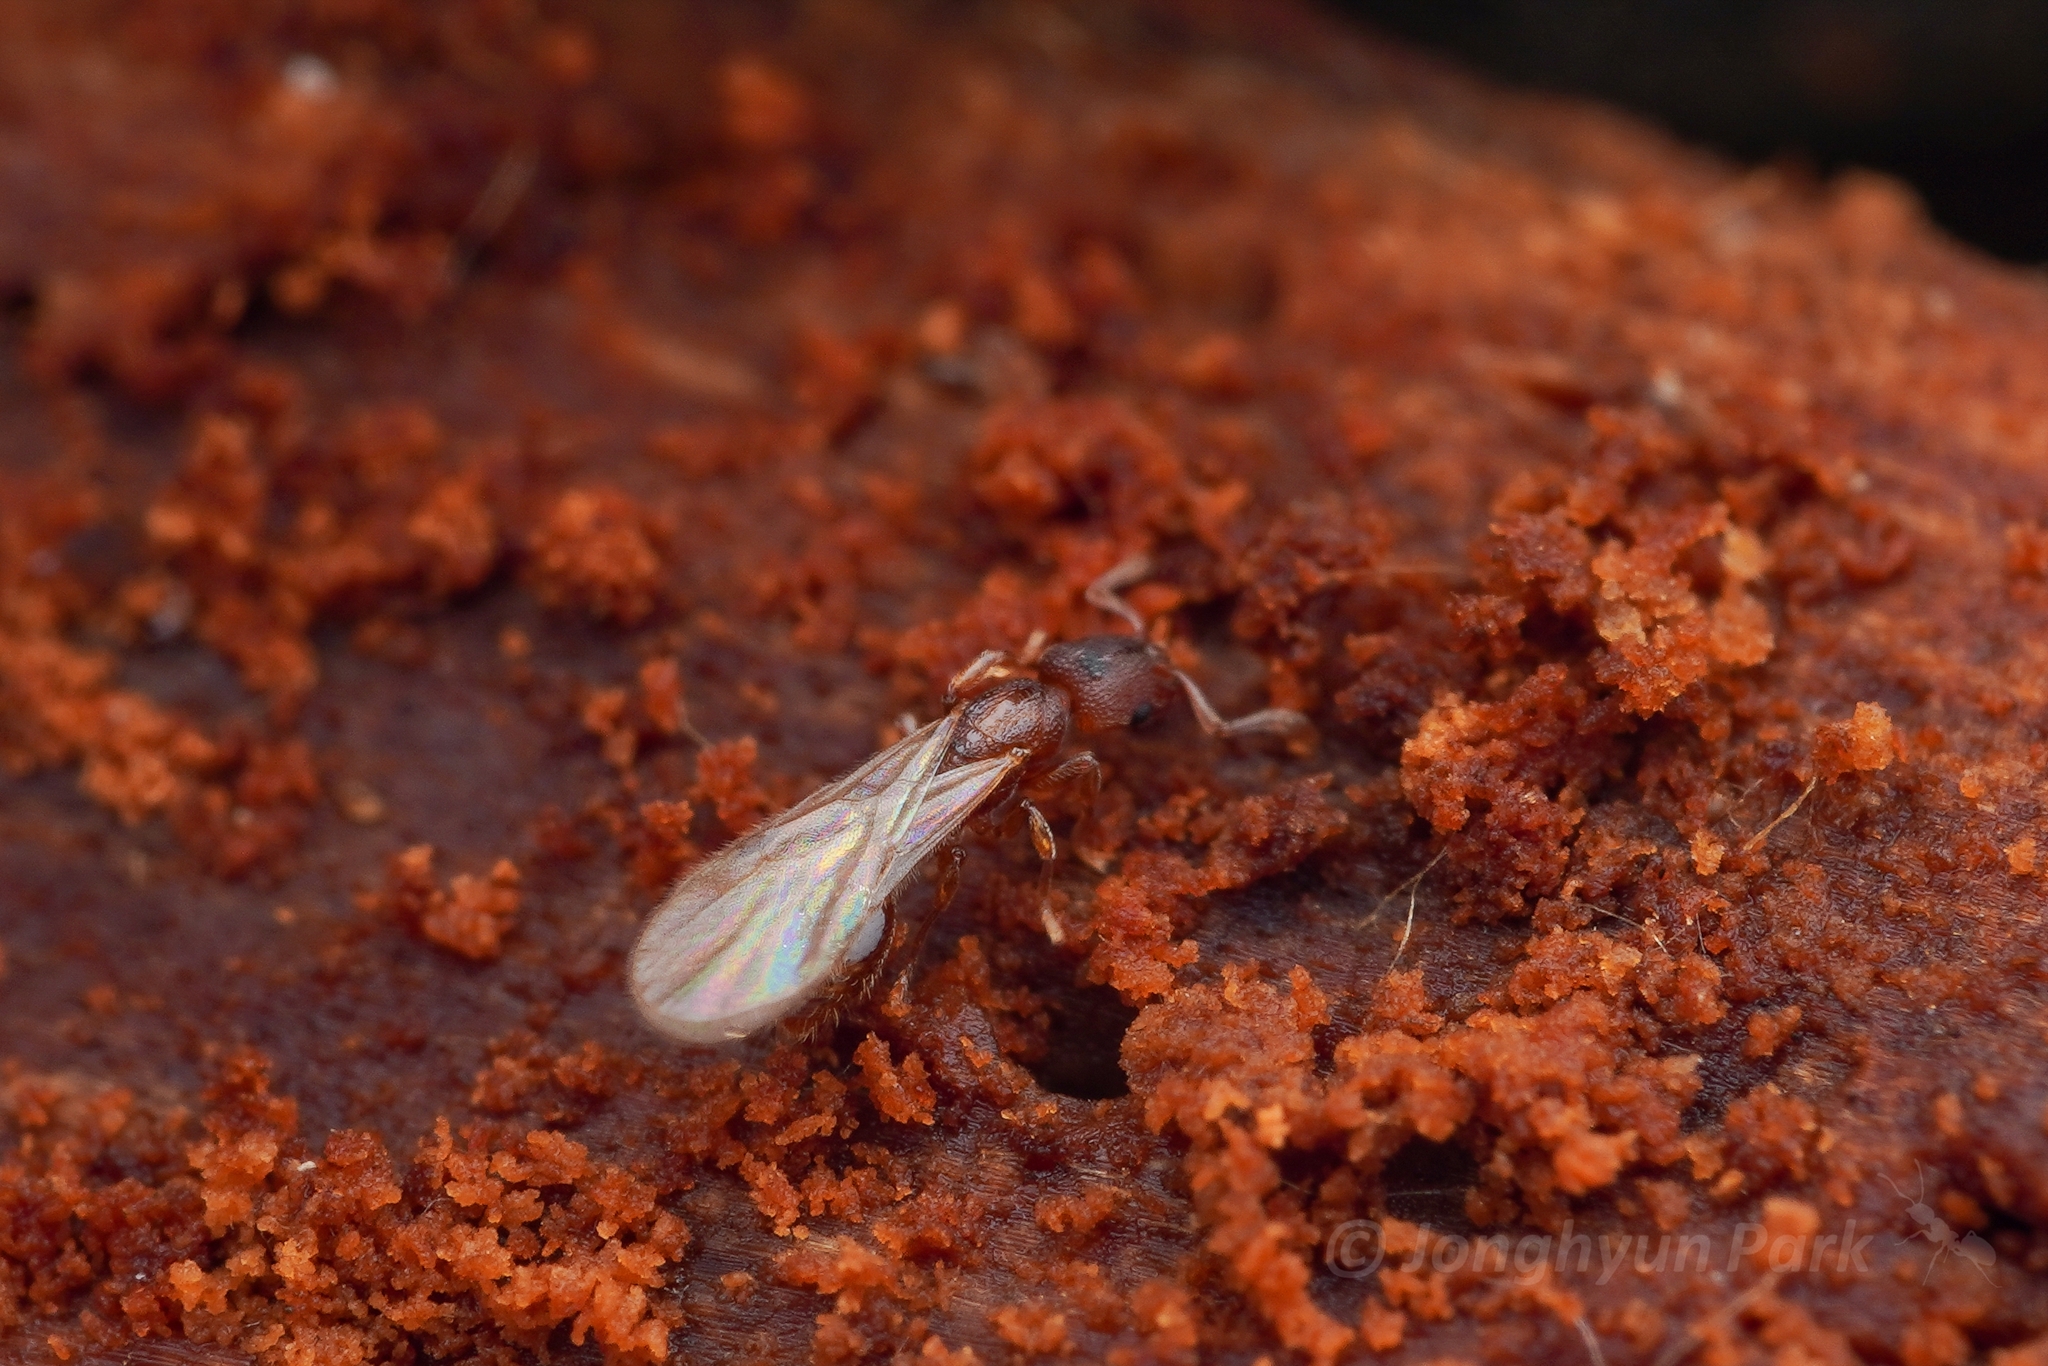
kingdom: Animalia
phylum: Arthropoda
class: Insecta
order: Hymenoptera
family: Formicidae
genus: Vollenhovia
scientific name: Vollenhovia nipponica
